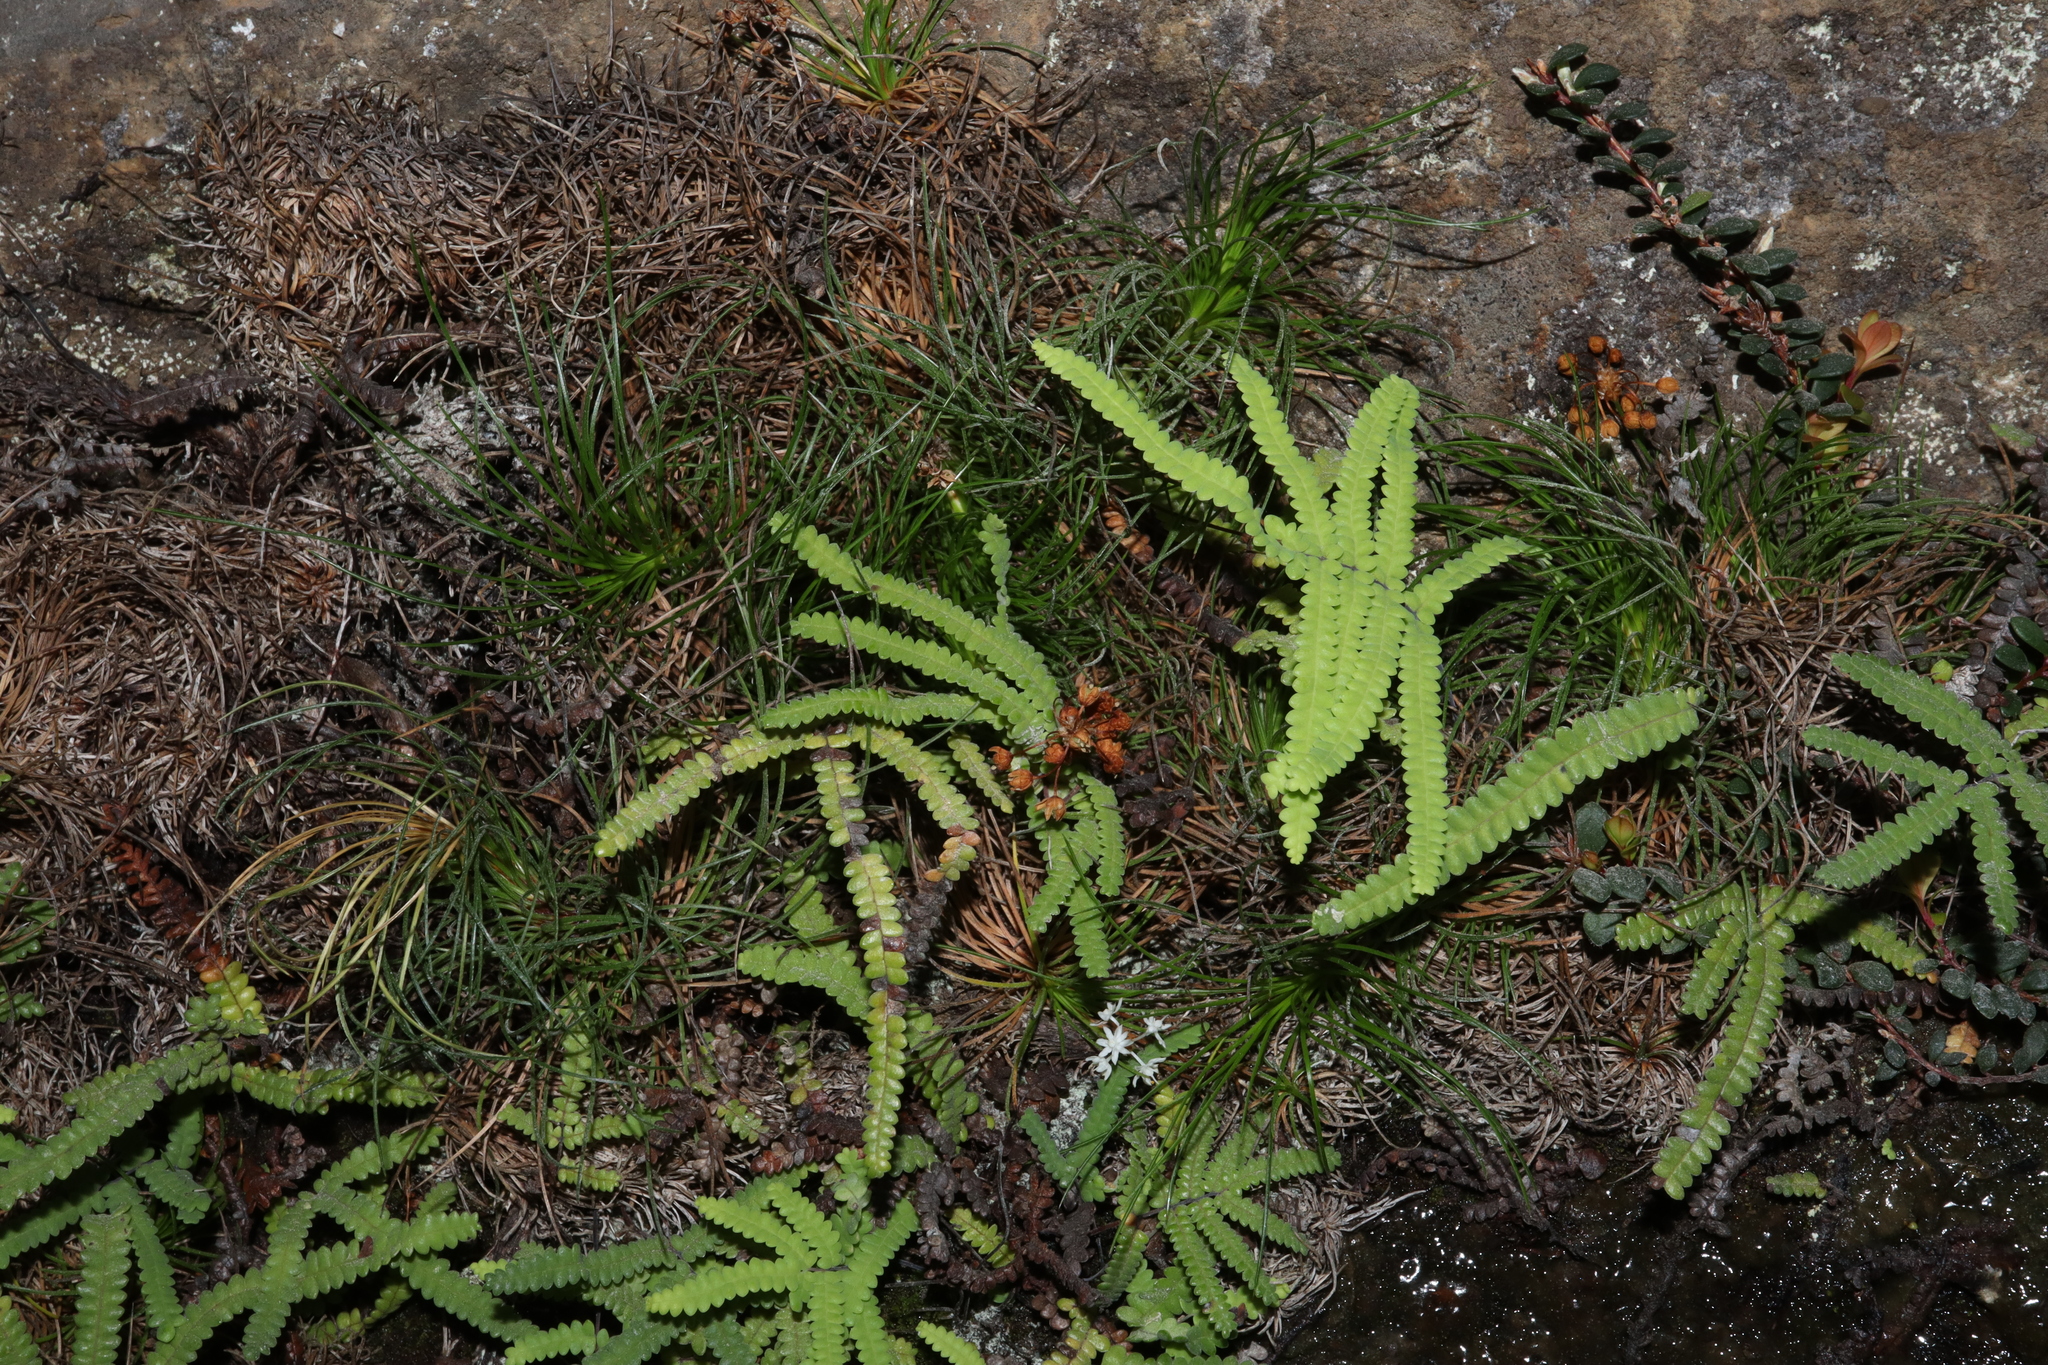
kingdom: Plantae
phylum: Tracheophyta
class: Liliopsida
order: Asparagales
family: Boryaceae
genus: Alania
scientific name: Alania cunninghamii
